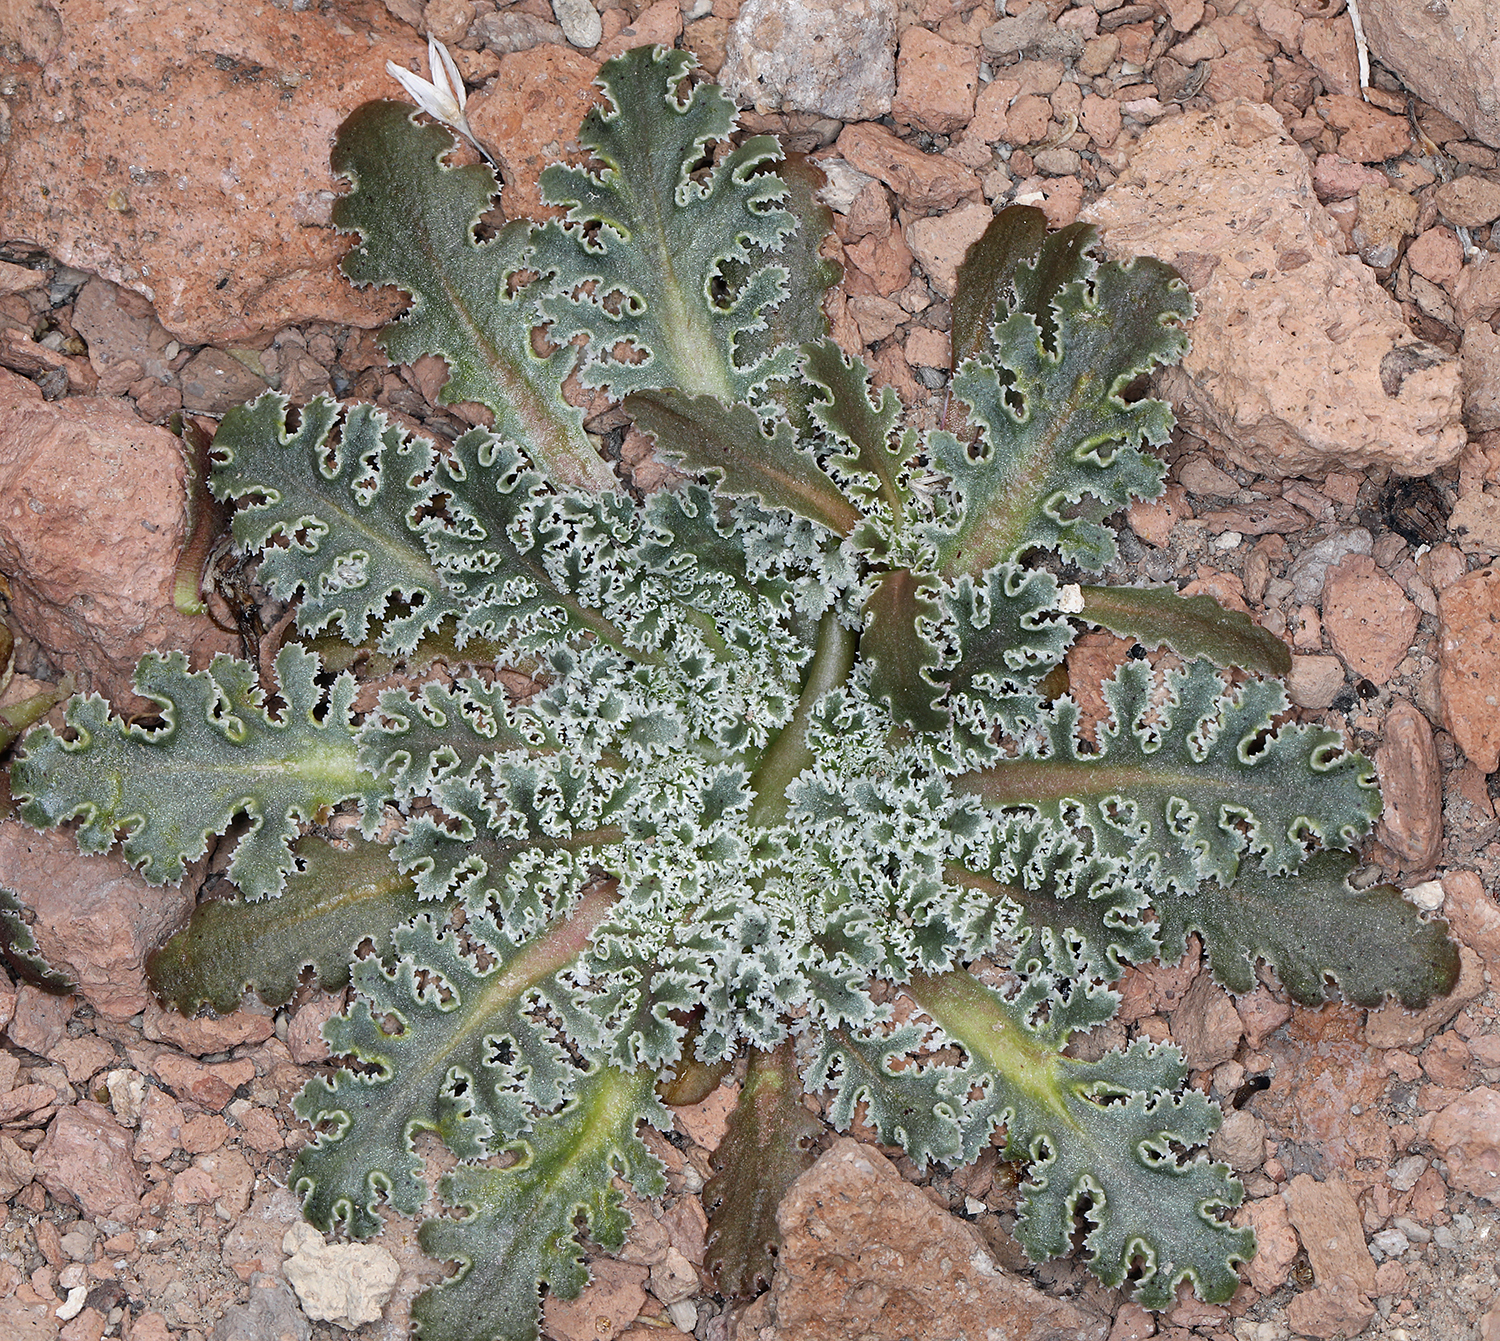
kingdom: Plantae
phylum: Tracheophyta
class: Magnoliopsida
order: Asterales
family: Asteraceae
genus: Glyptopleura
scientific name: Glyptopleura marginata
